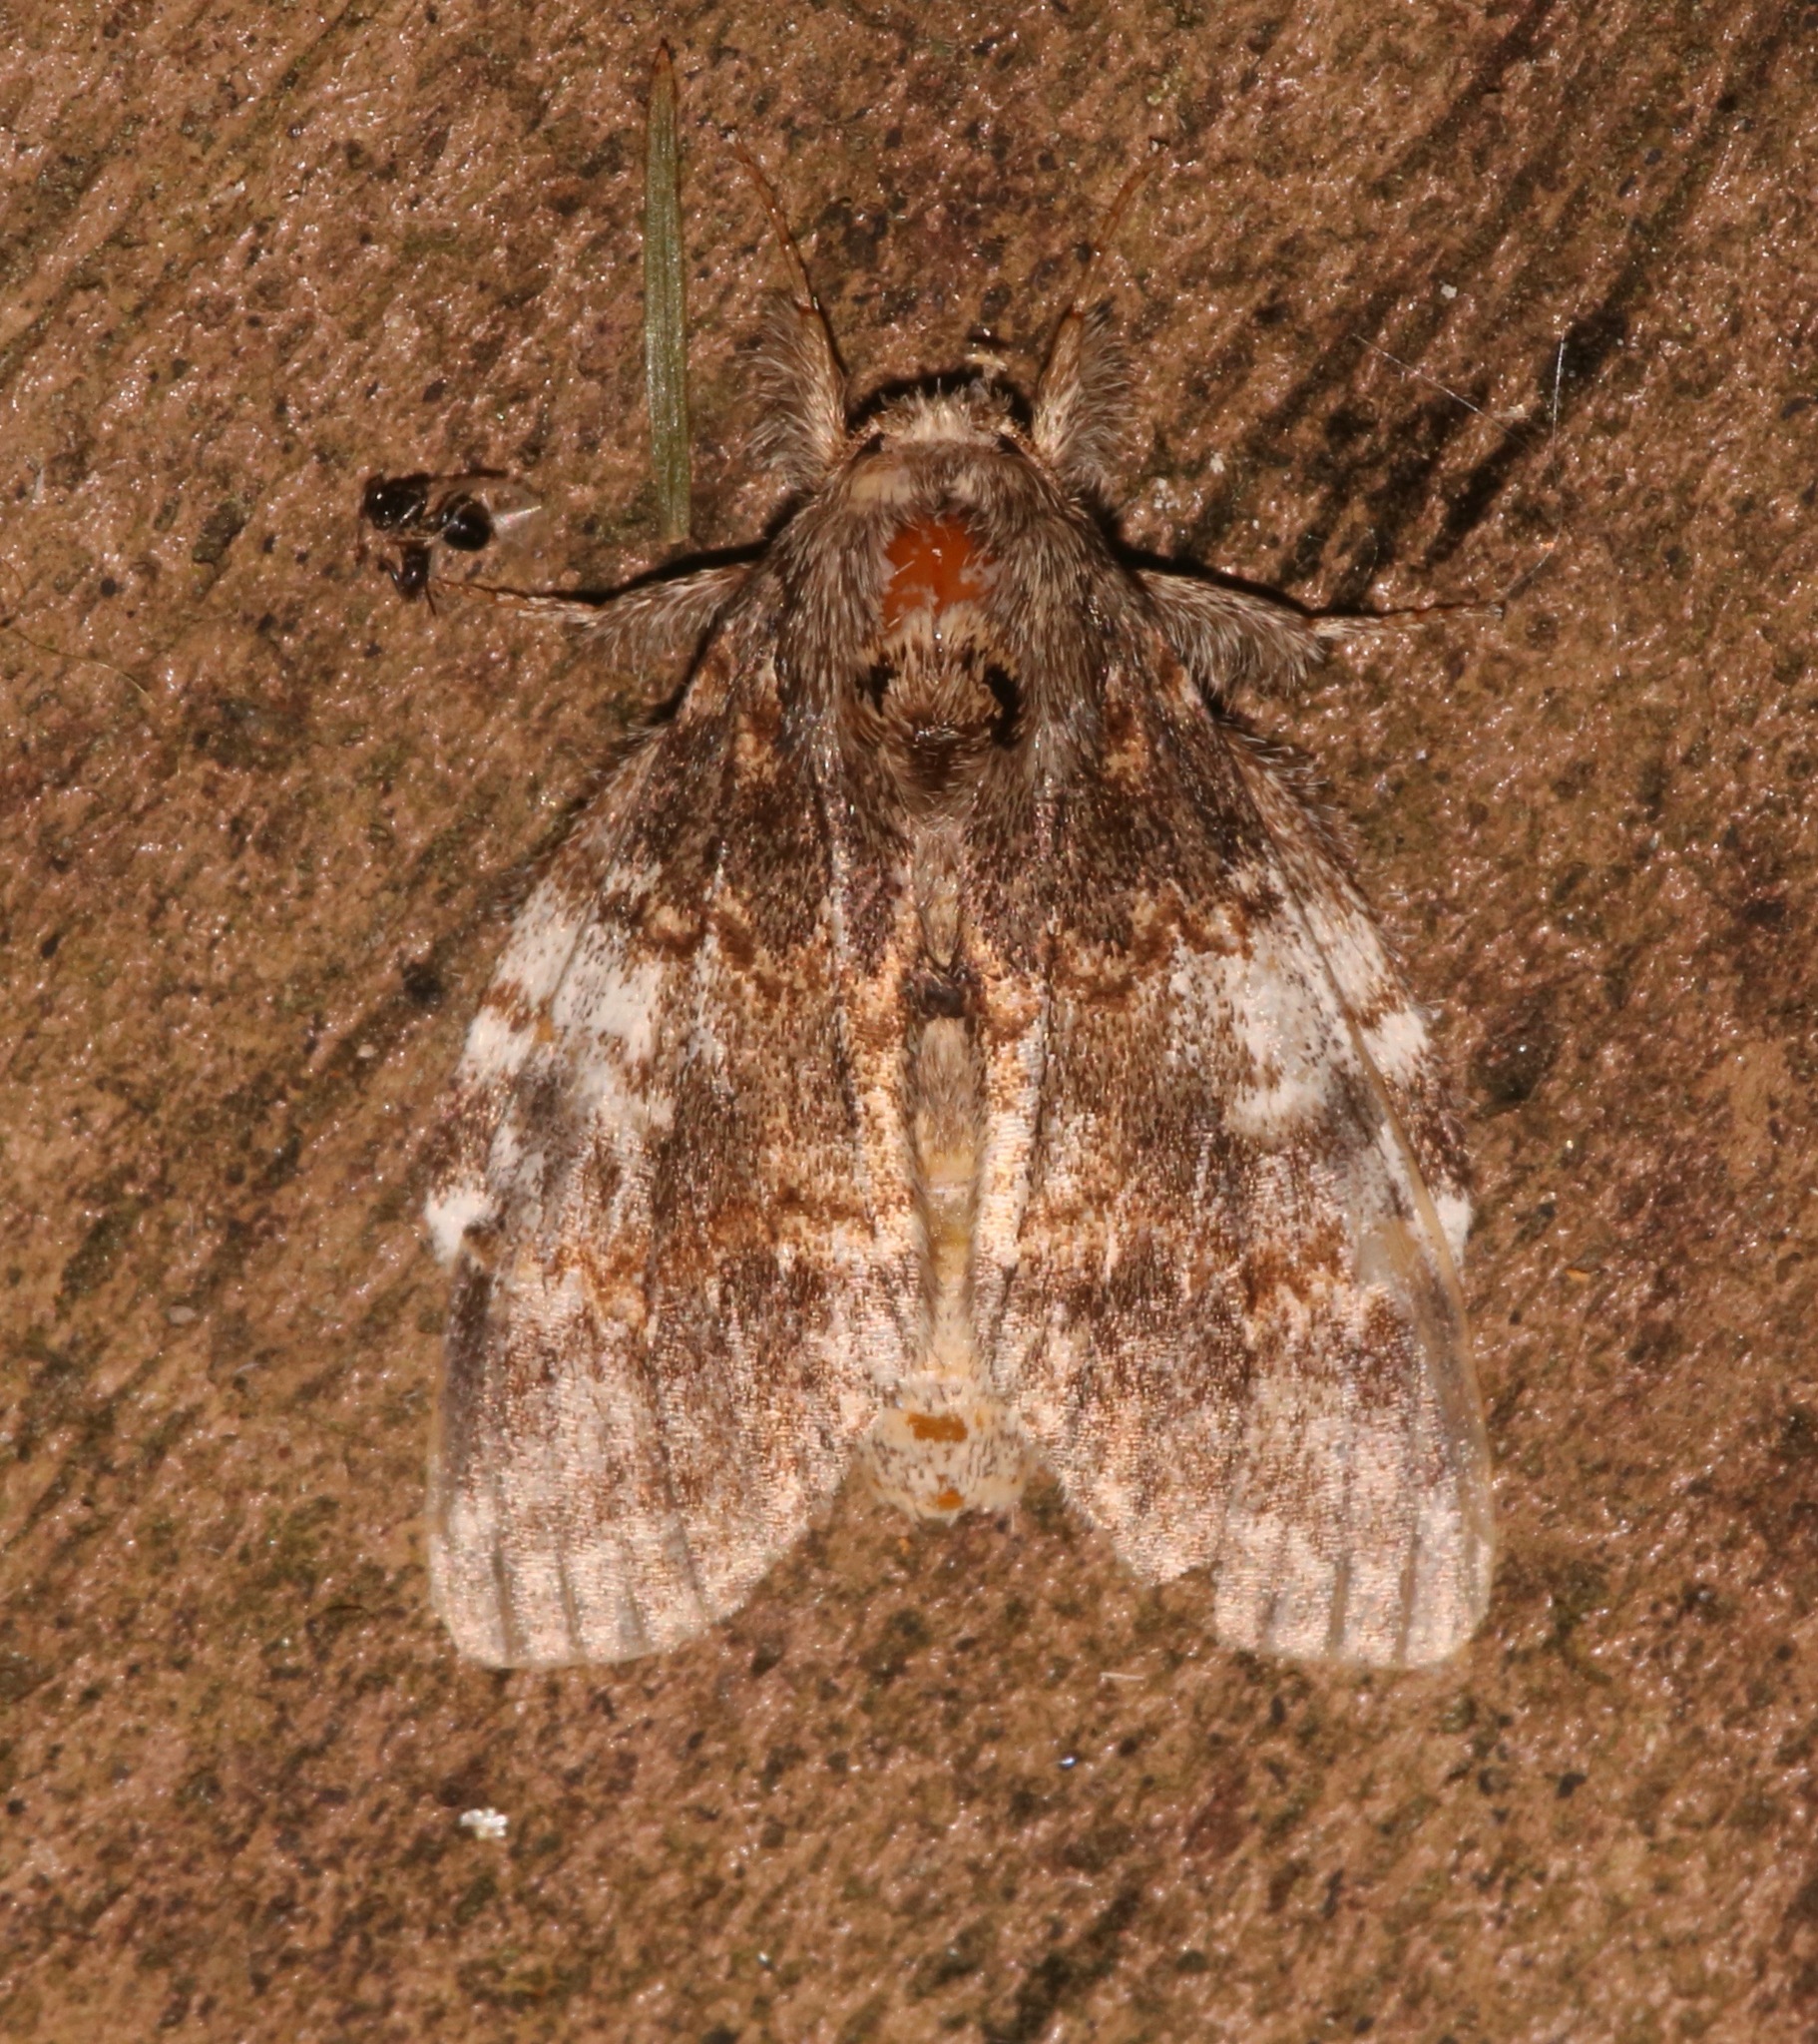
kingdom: Animalia
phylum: Arthropoda
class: Insecta
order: Lepidoptera
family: Notodontidae
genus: Peridea
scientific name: Peridea angulosa
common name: Angulose prominent
